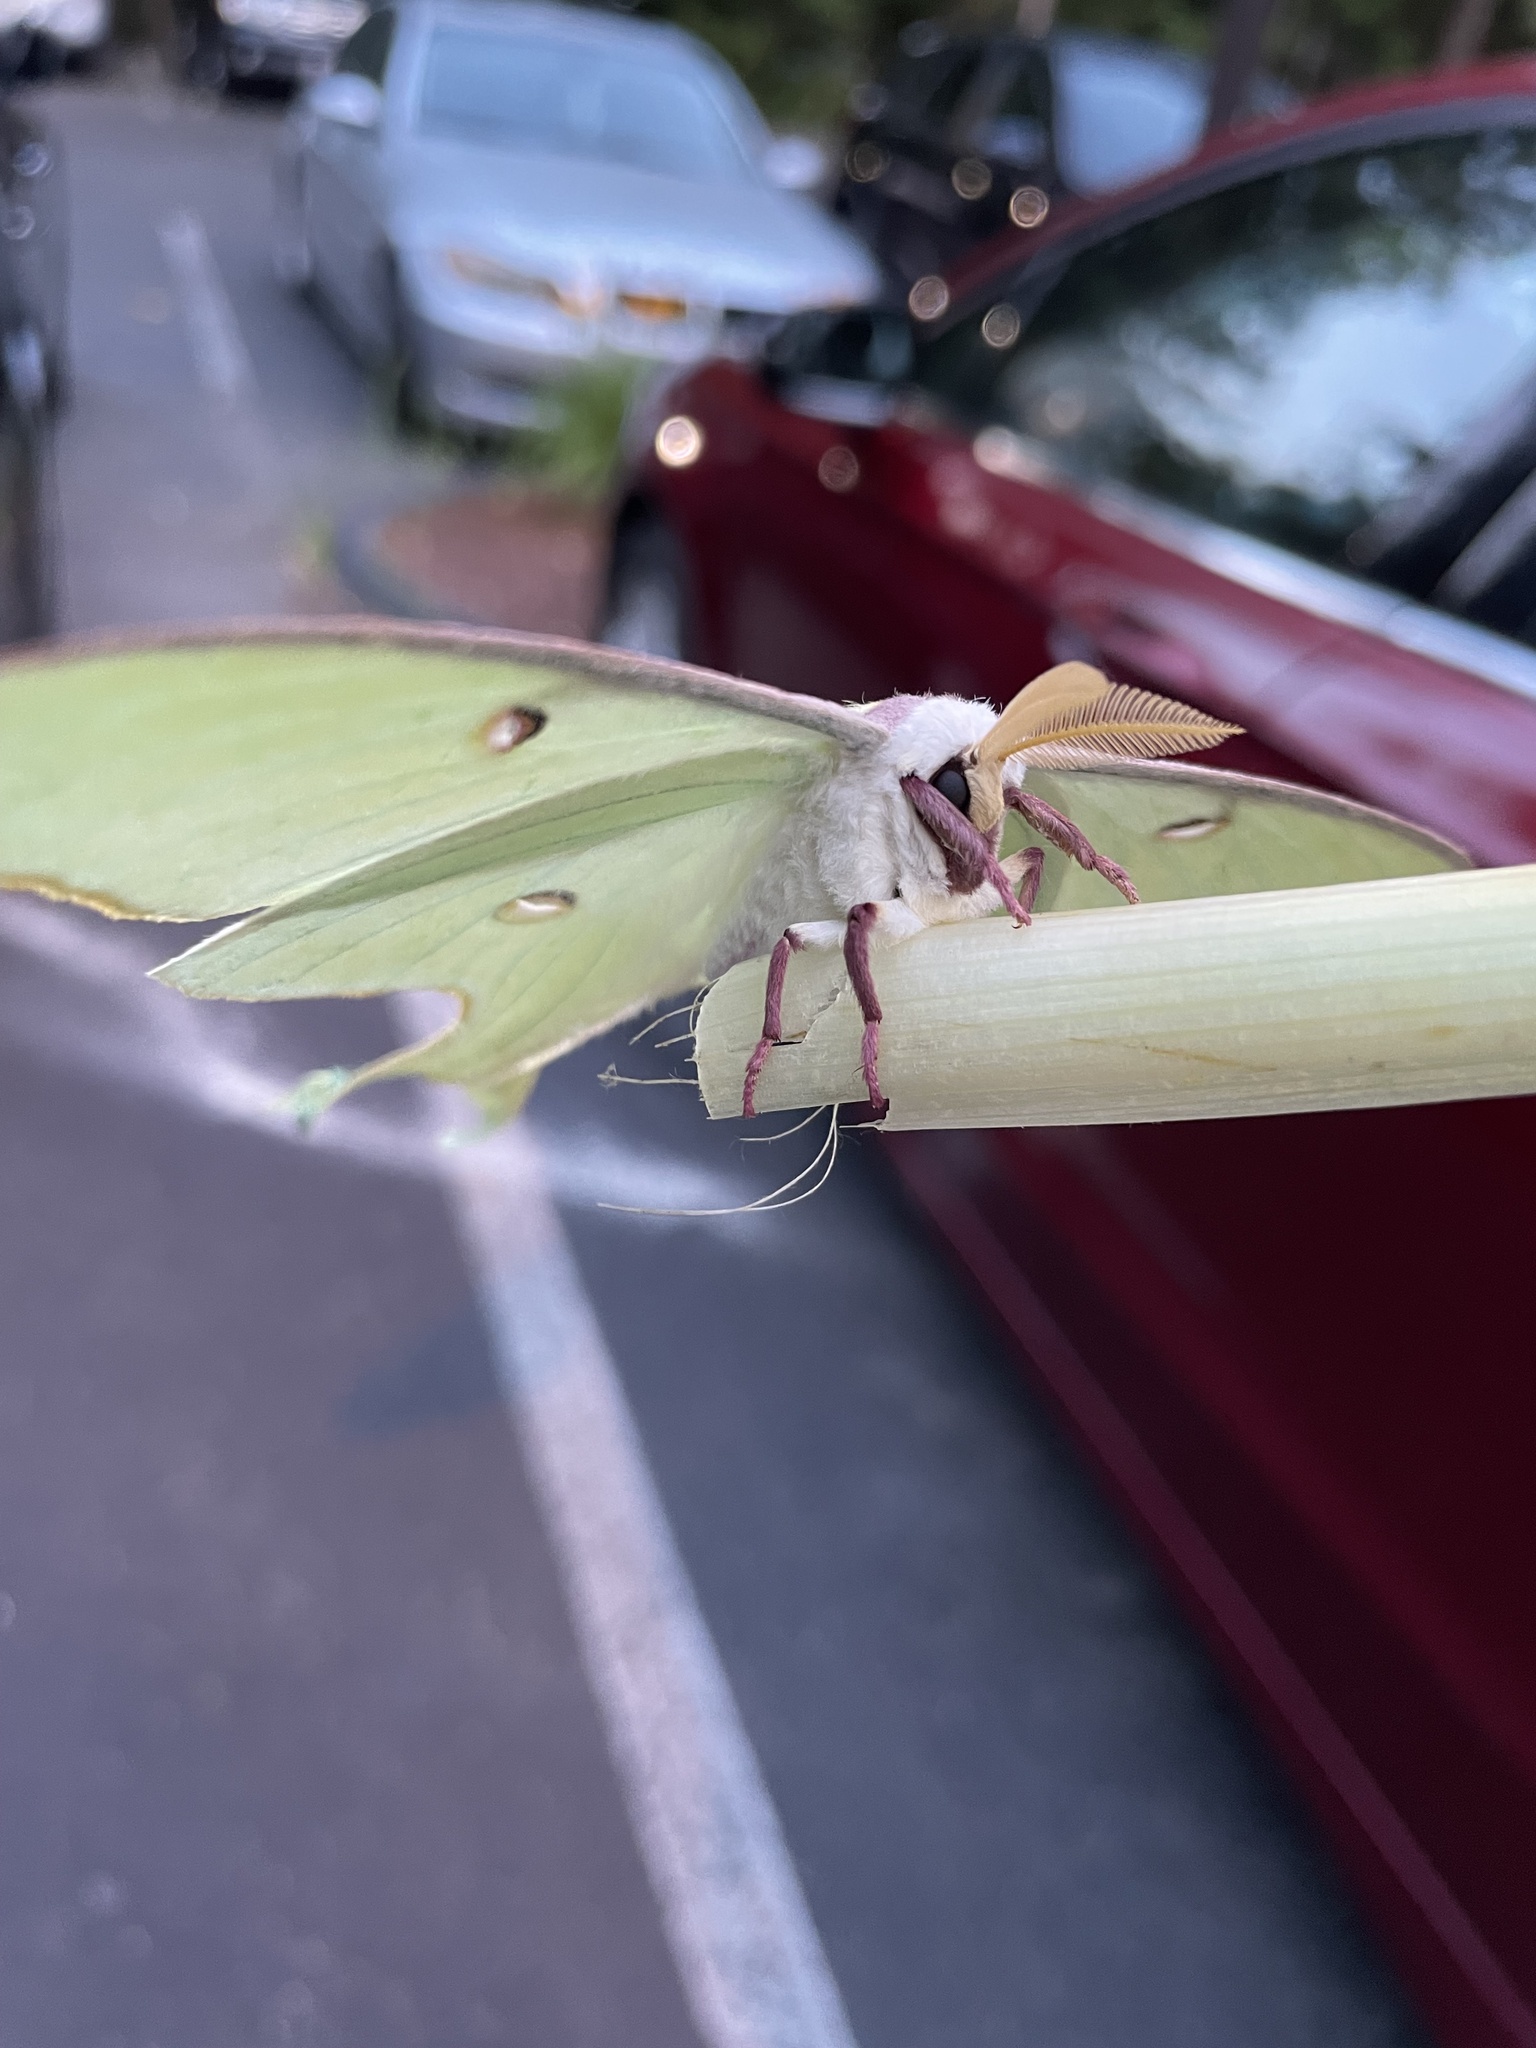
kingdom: Animalia
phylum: Arthropoda
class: Insecta
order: Lepidoptera
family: Saturniidae
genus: Actias
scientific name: Actias luna
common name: Luna moth
